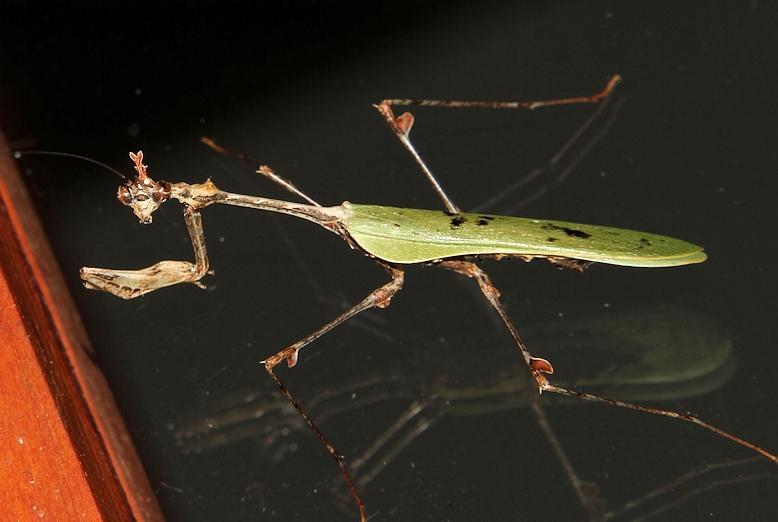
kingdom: Animalia
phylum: Arthropoda
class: Insecta
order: Mantodea
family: Hymenopodidae
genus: Sibylla
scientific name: Sibylla pretiosa
